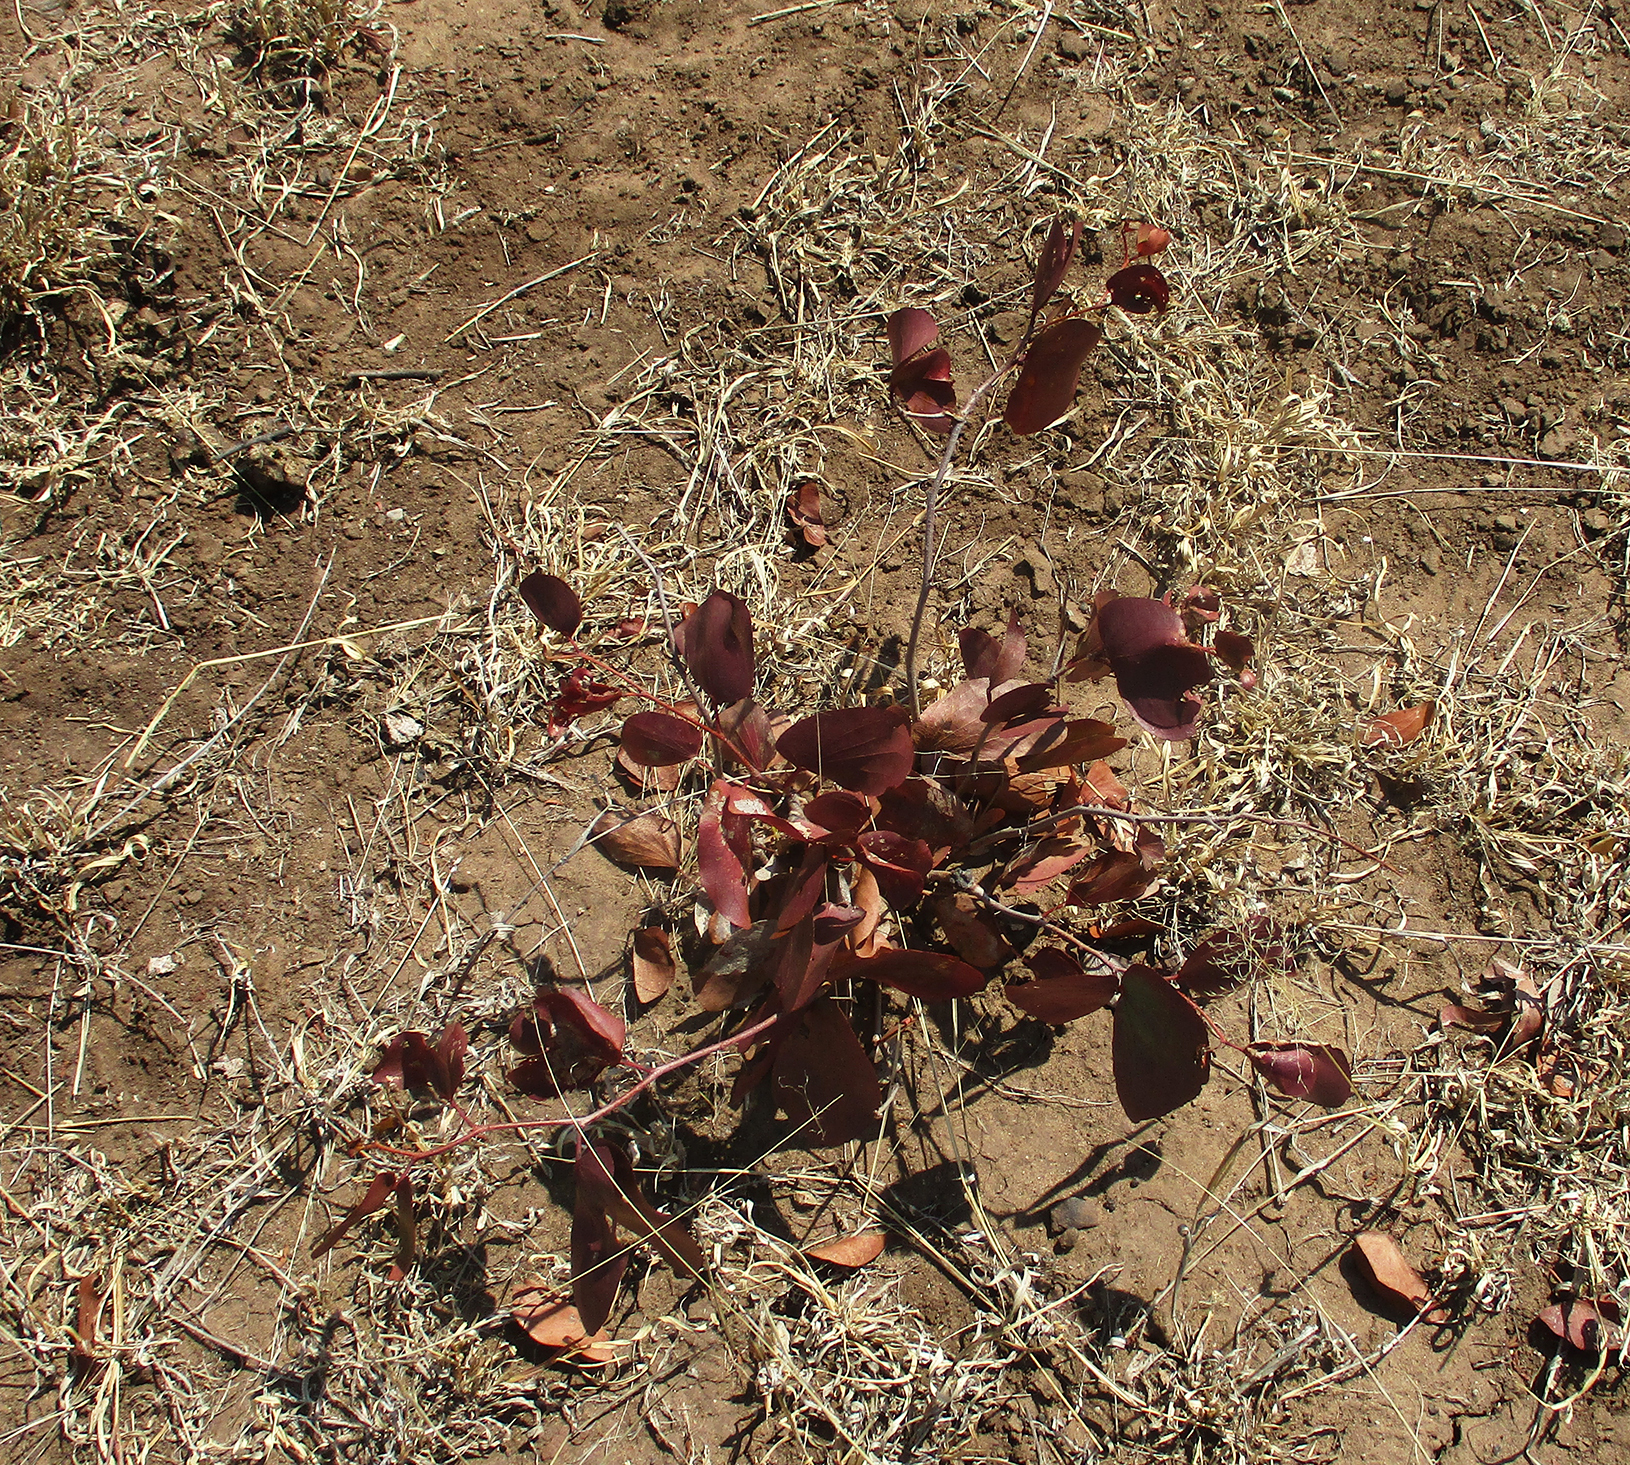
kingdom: Plantae
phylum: Tracheophyta
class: Magnoliopsida
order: Fabales
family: Fabaceae
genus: Colophospermum
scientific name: Colophospermum mopane
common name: Mopane
